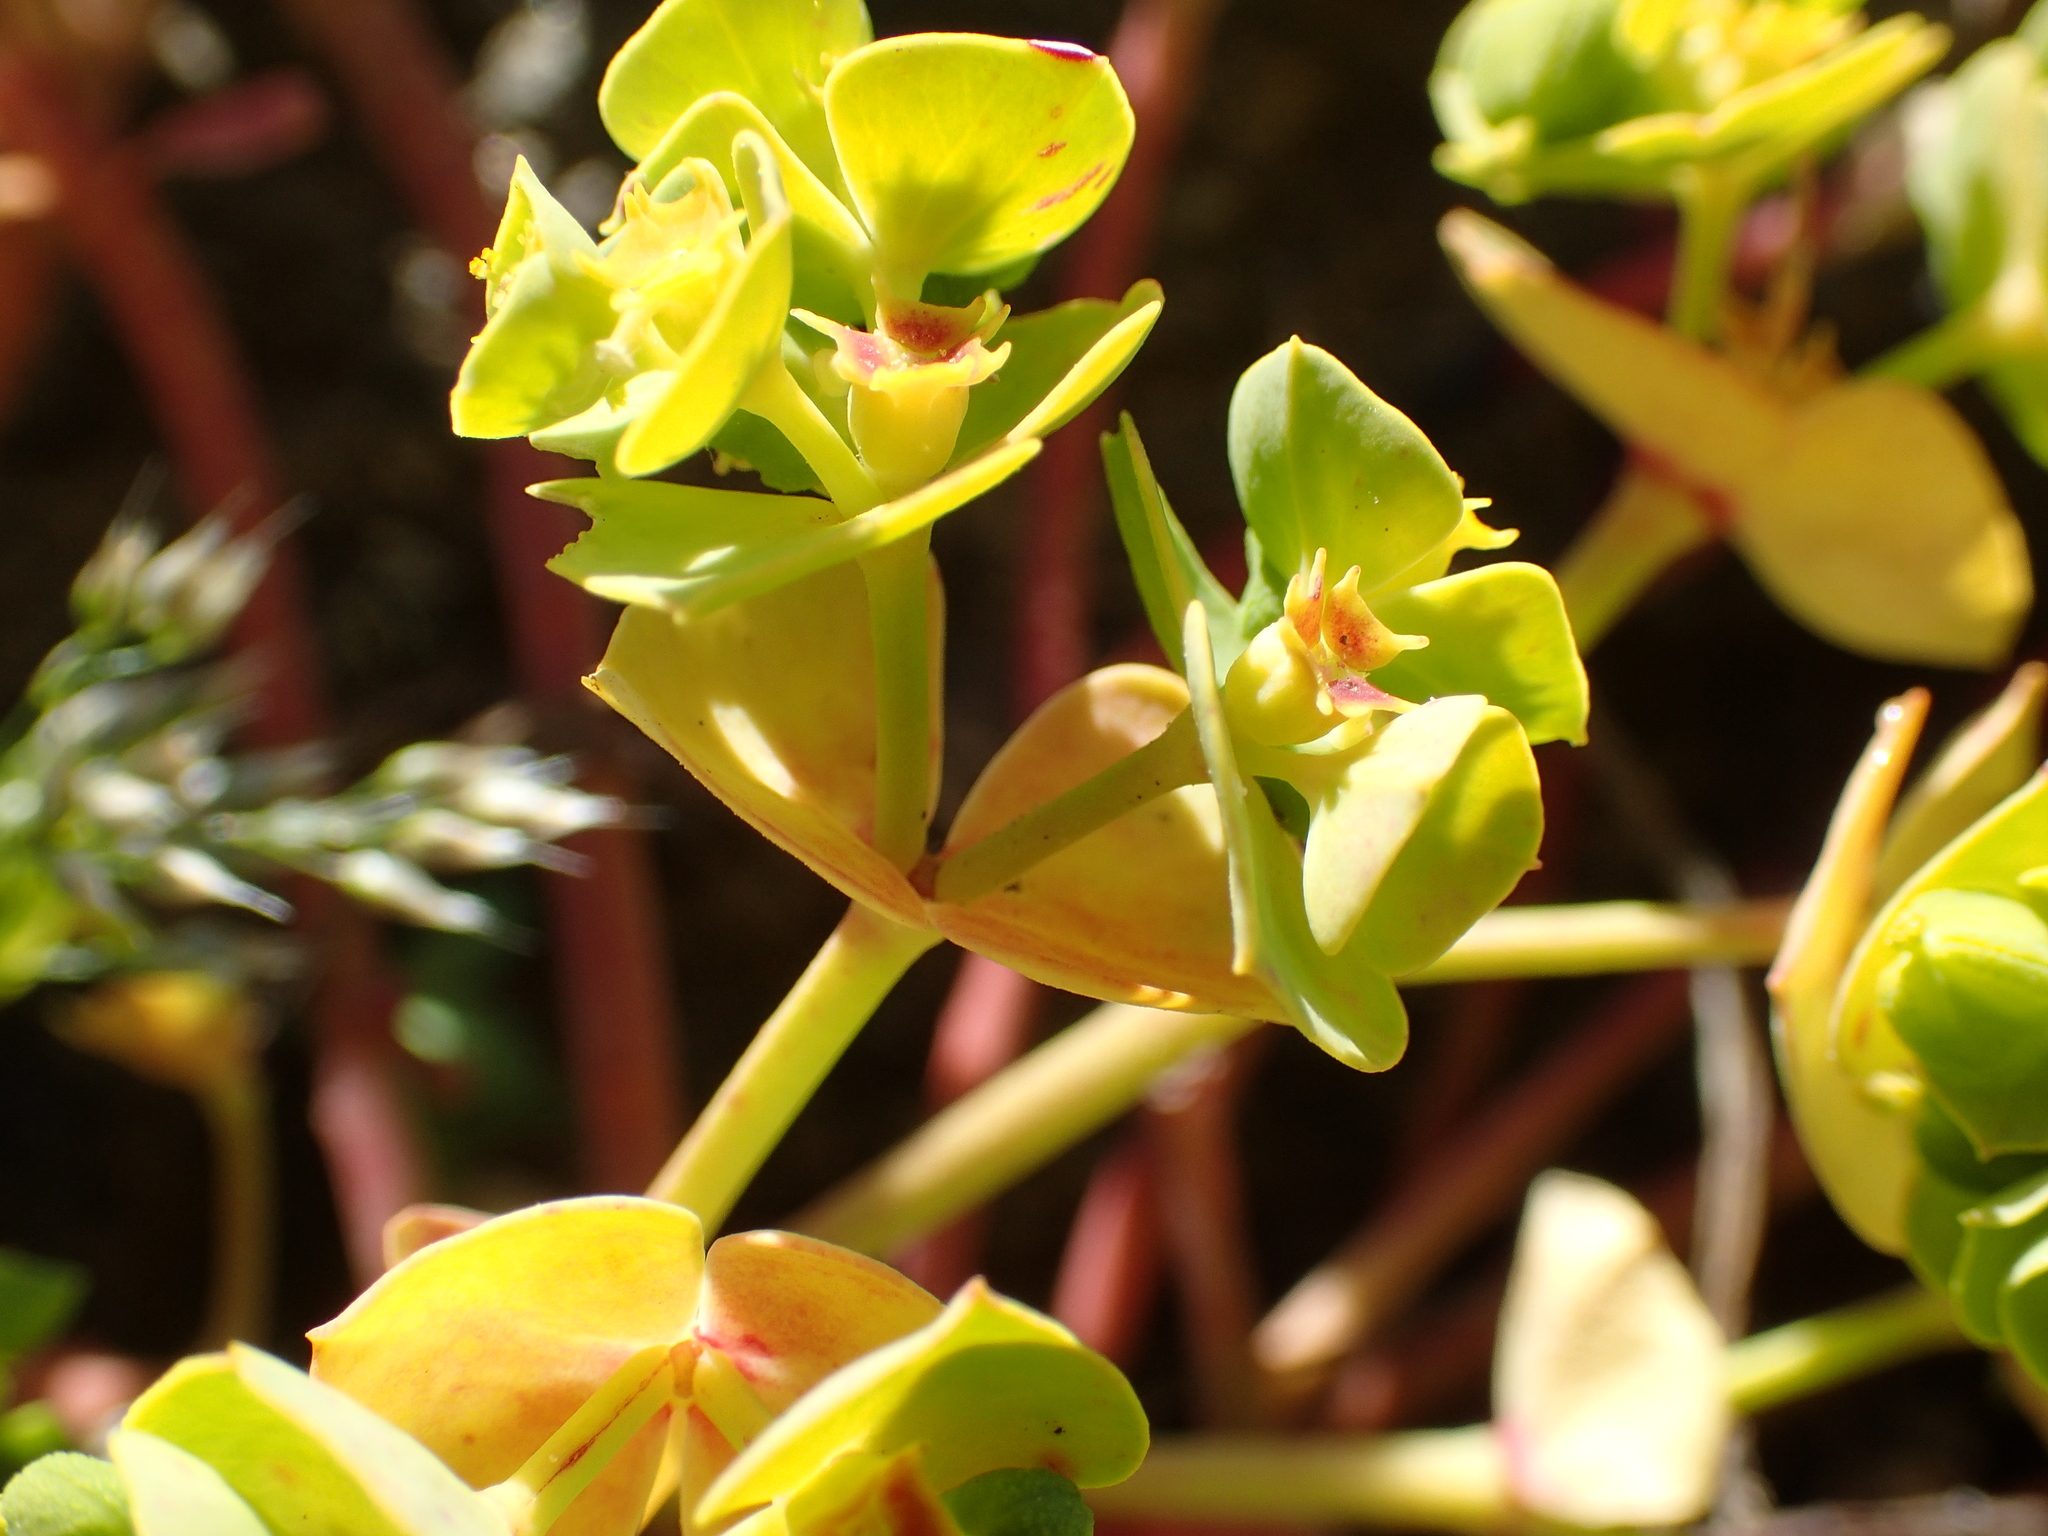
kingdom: Plantae
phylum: Tracheophyta
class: Magnoliopsida
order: Malpighiales
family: Euphorbiaceae
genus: Euphorbia
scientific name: Euphorbia portlandica
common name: Portland spurge
